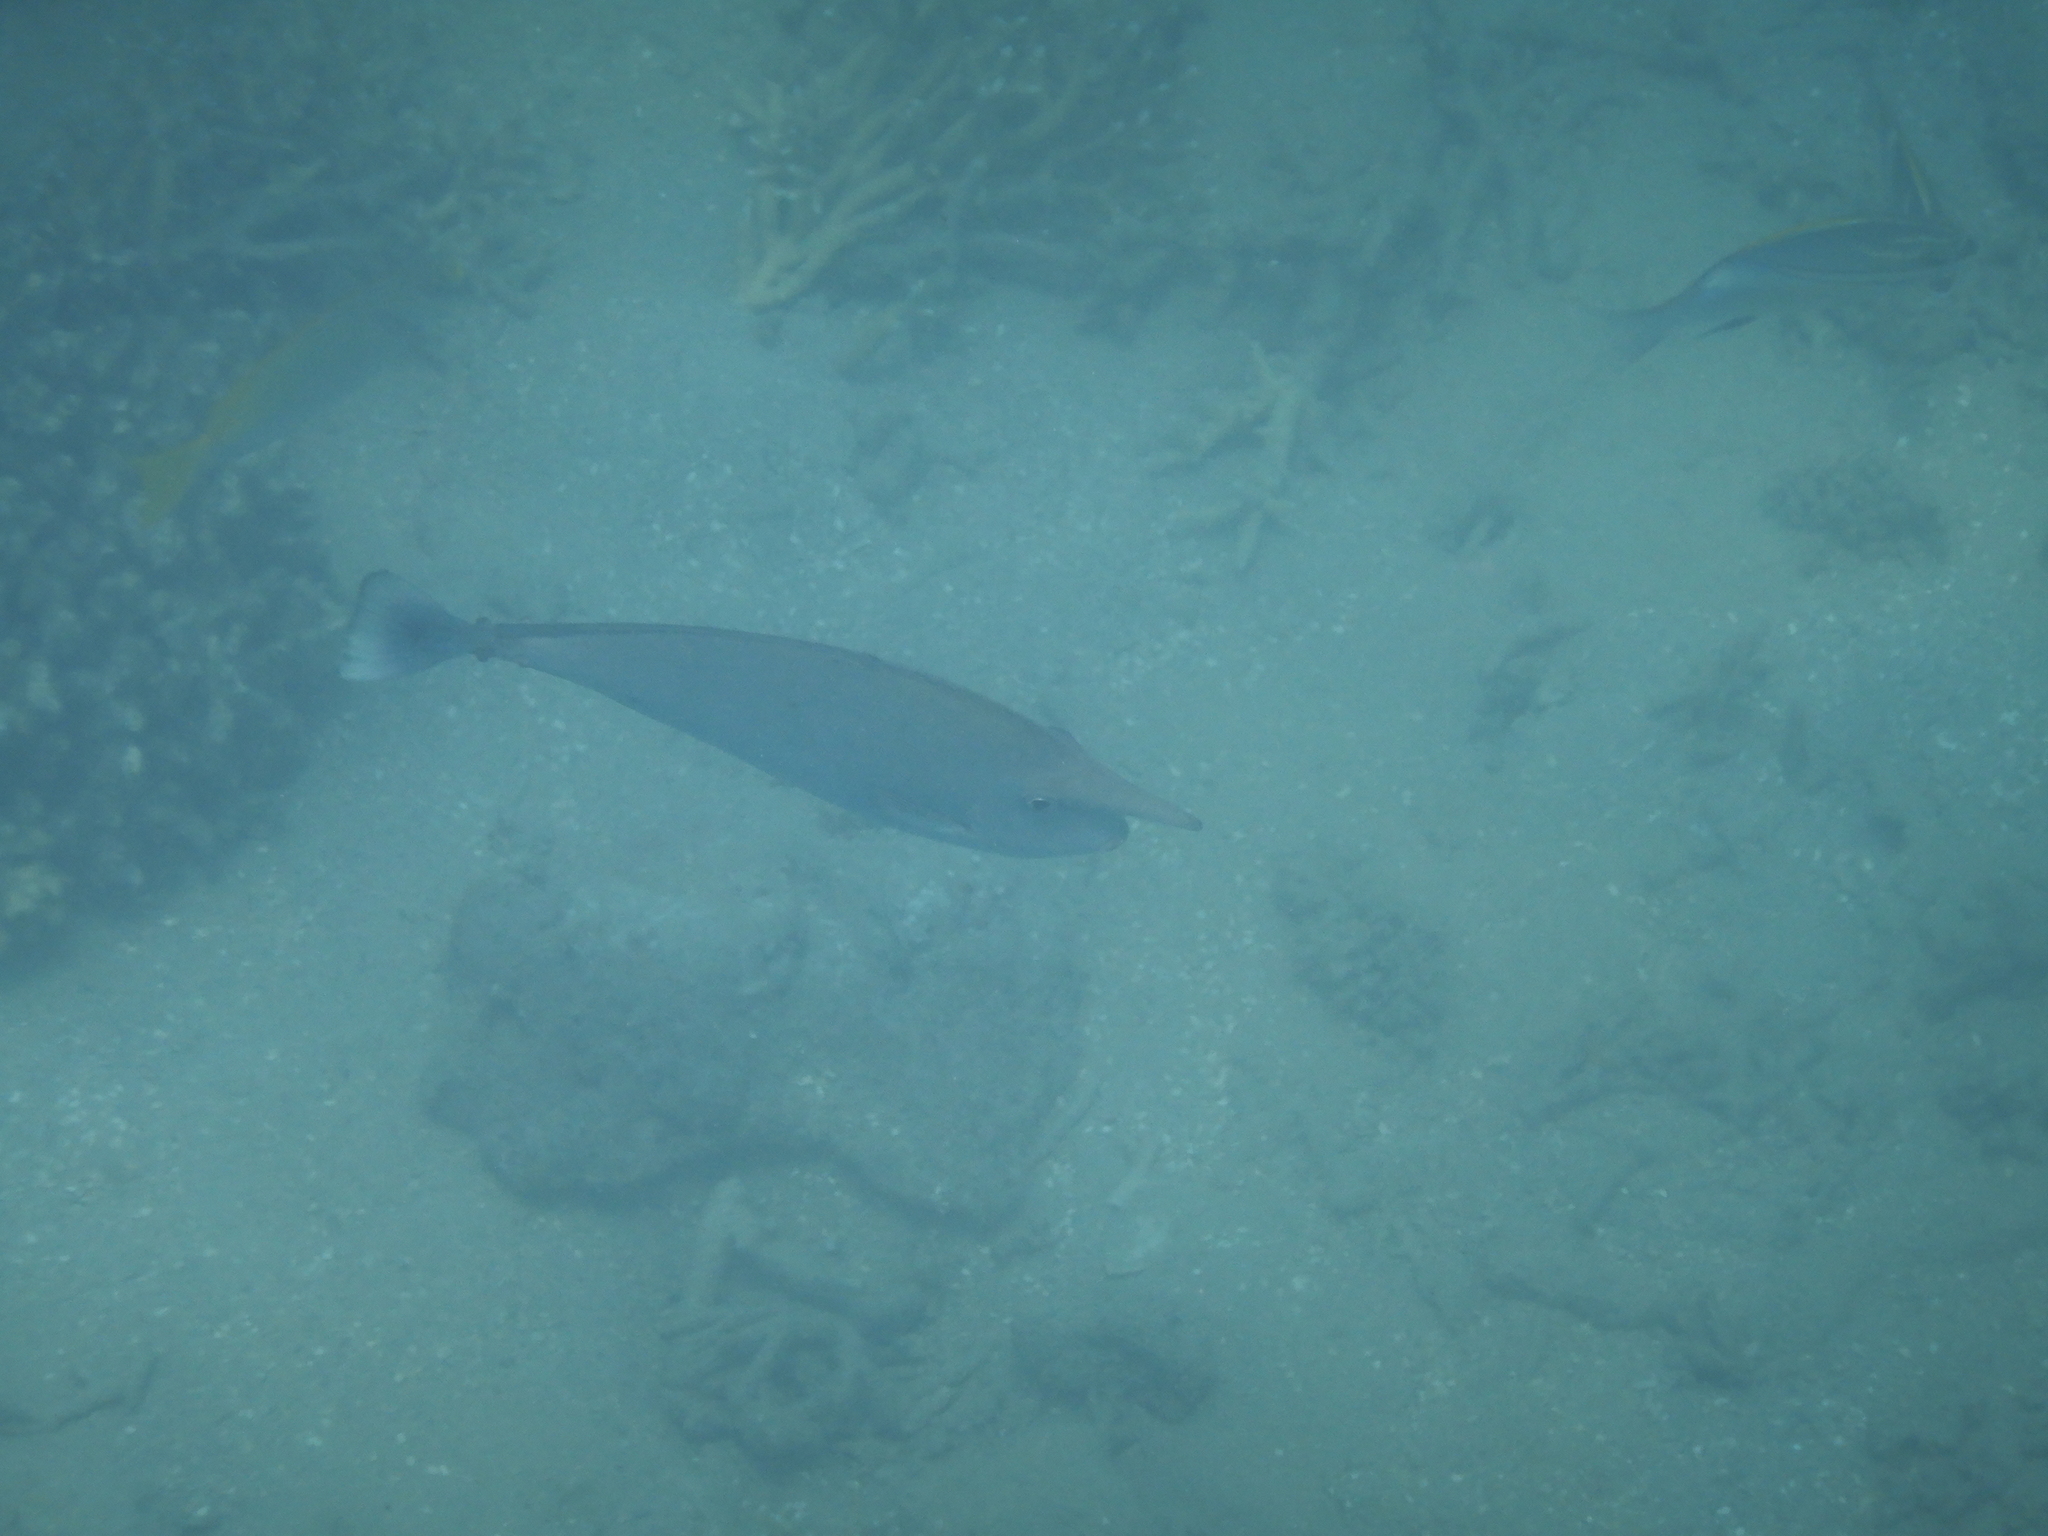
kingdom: Animalia
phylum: Chordata
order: Perciformes
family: Acanthuridae
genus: Naso
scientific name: Naso brevirostris
